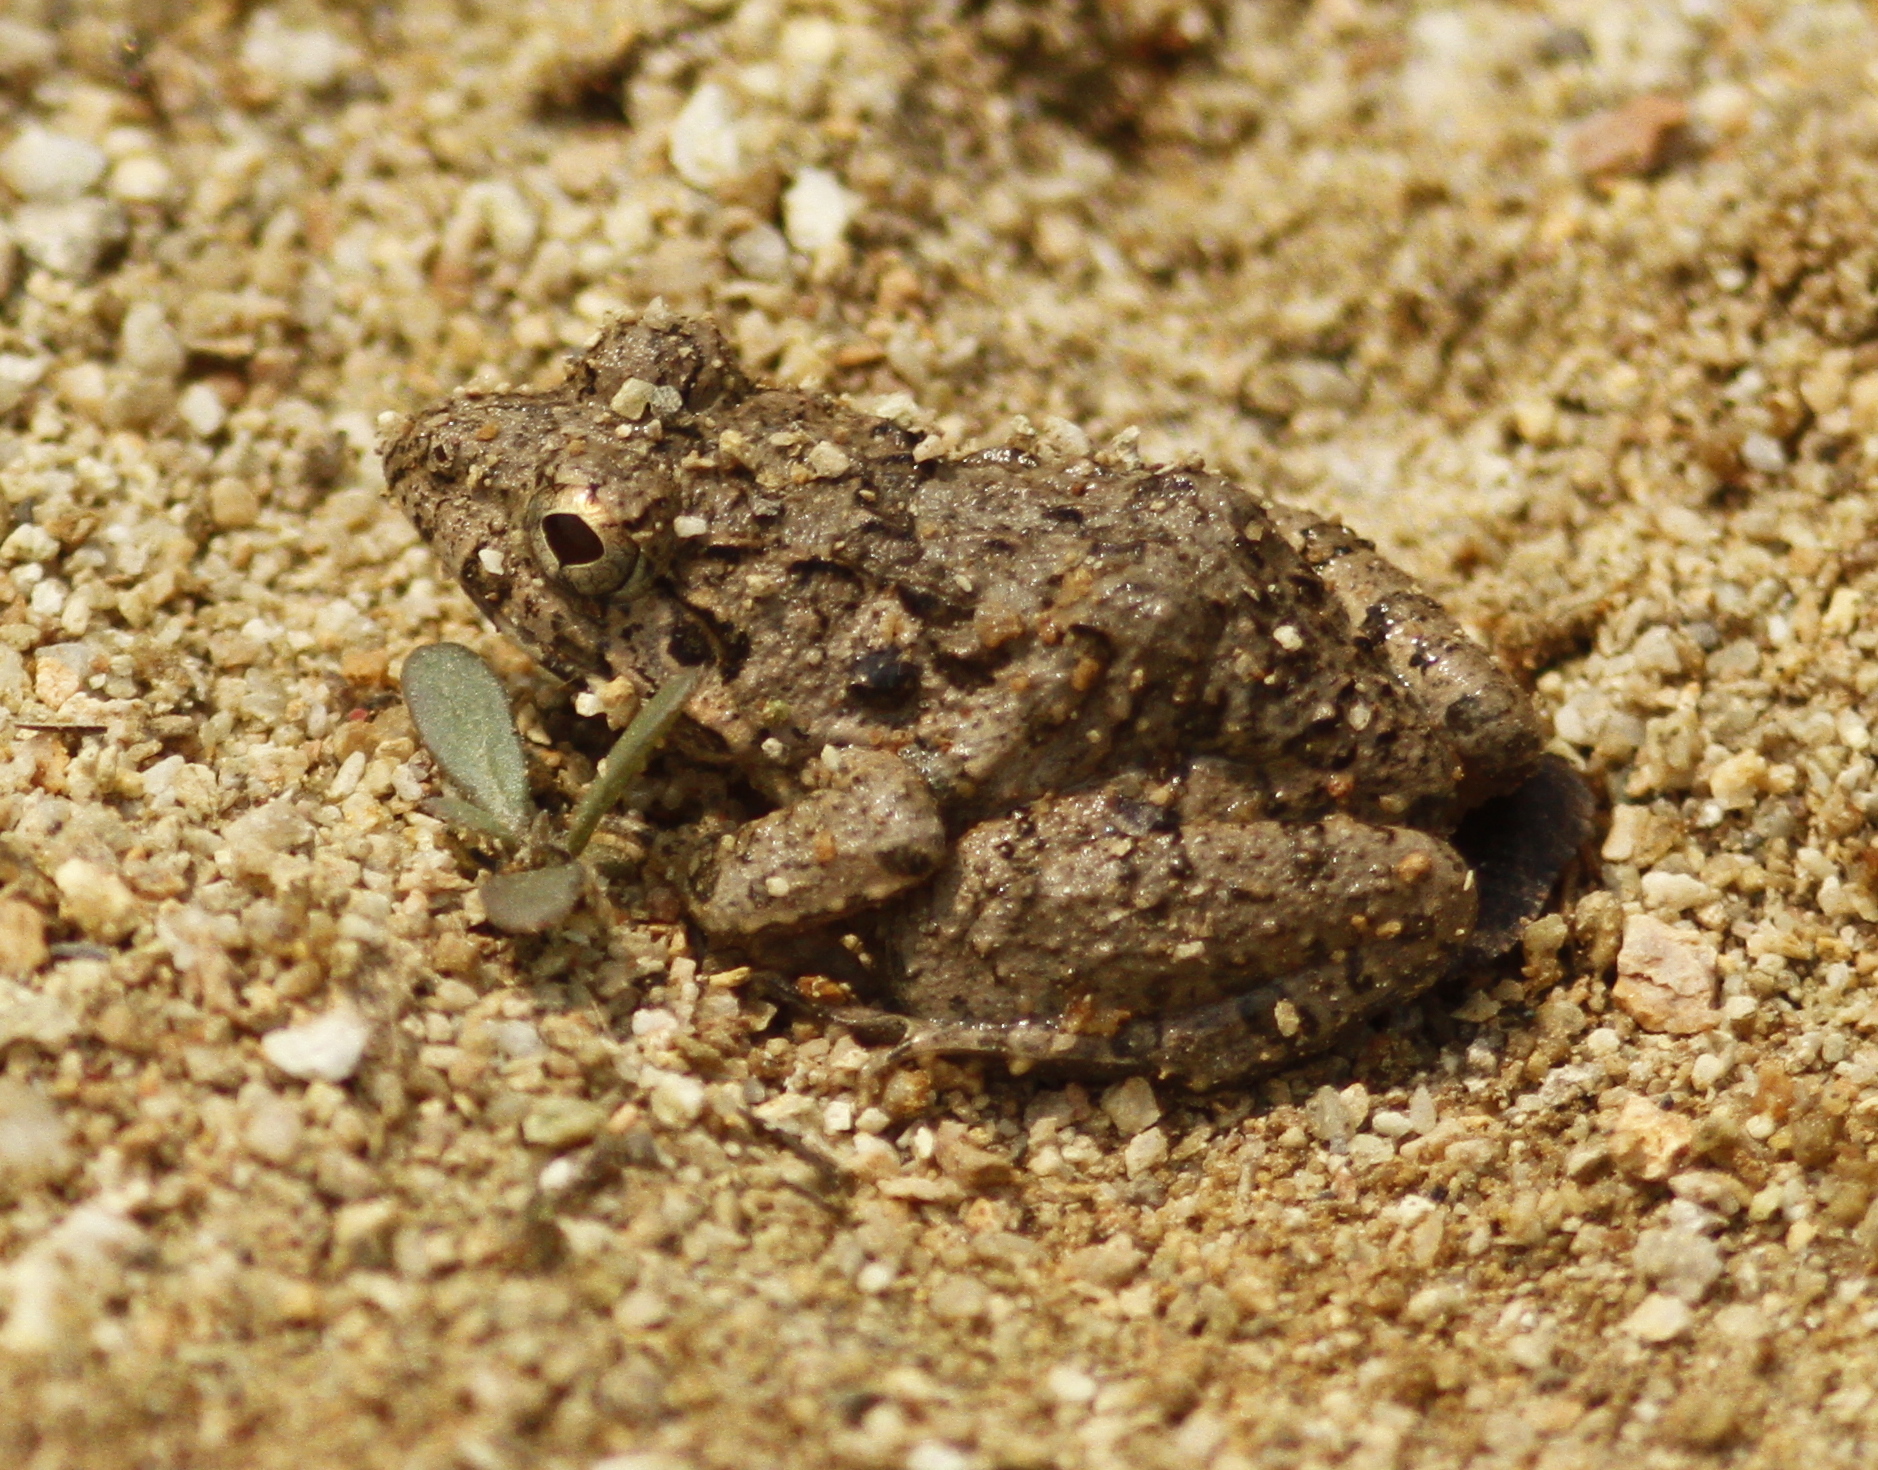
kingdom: Animalia
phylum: Chordata
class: Amphibia
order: Anura
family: Dicroglossidae
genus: Fejervarya
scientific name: Fejervarya limnocharis
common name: Asian grass frog/common pond frog/field frog/grass frog/indian rice frog
